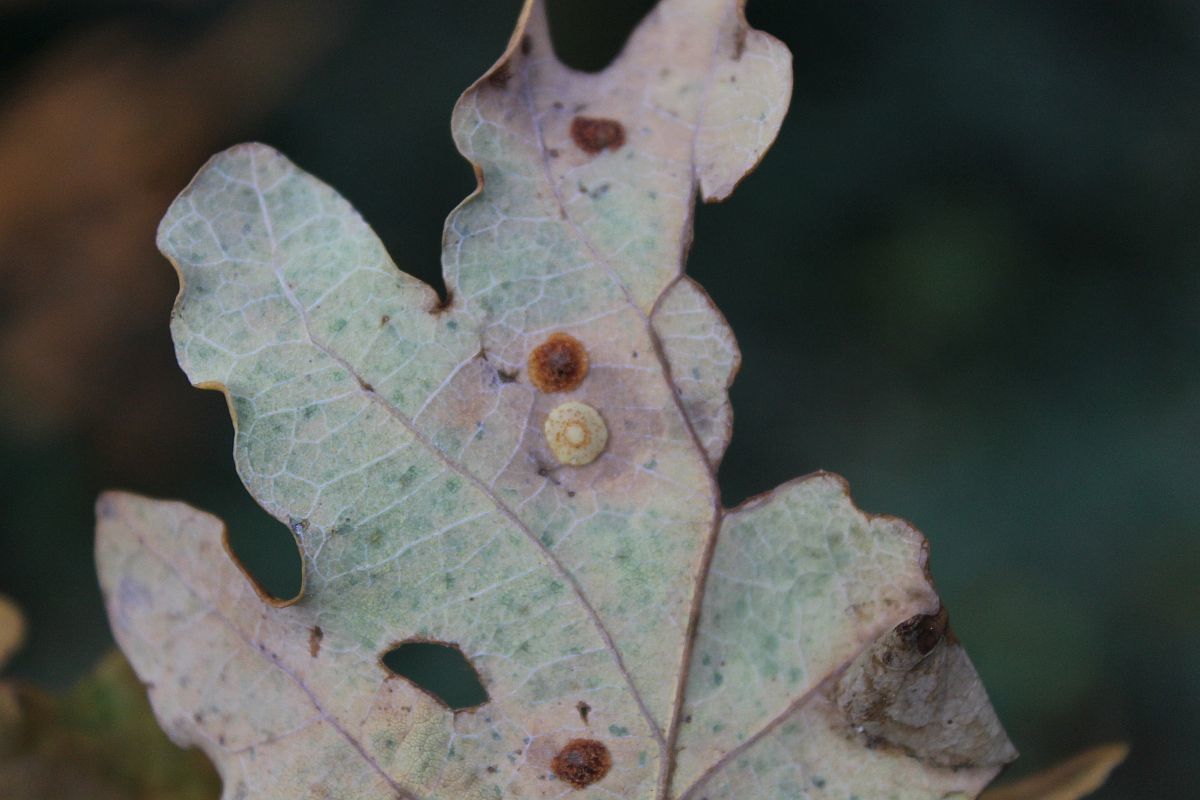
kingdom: Animalia
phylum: Arthropoda
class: Insecta
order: Hymenoptera
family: Cynipidae
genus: Neuroterus
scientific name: Neuroterus quercusbaccarum
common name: Common spangle gall
